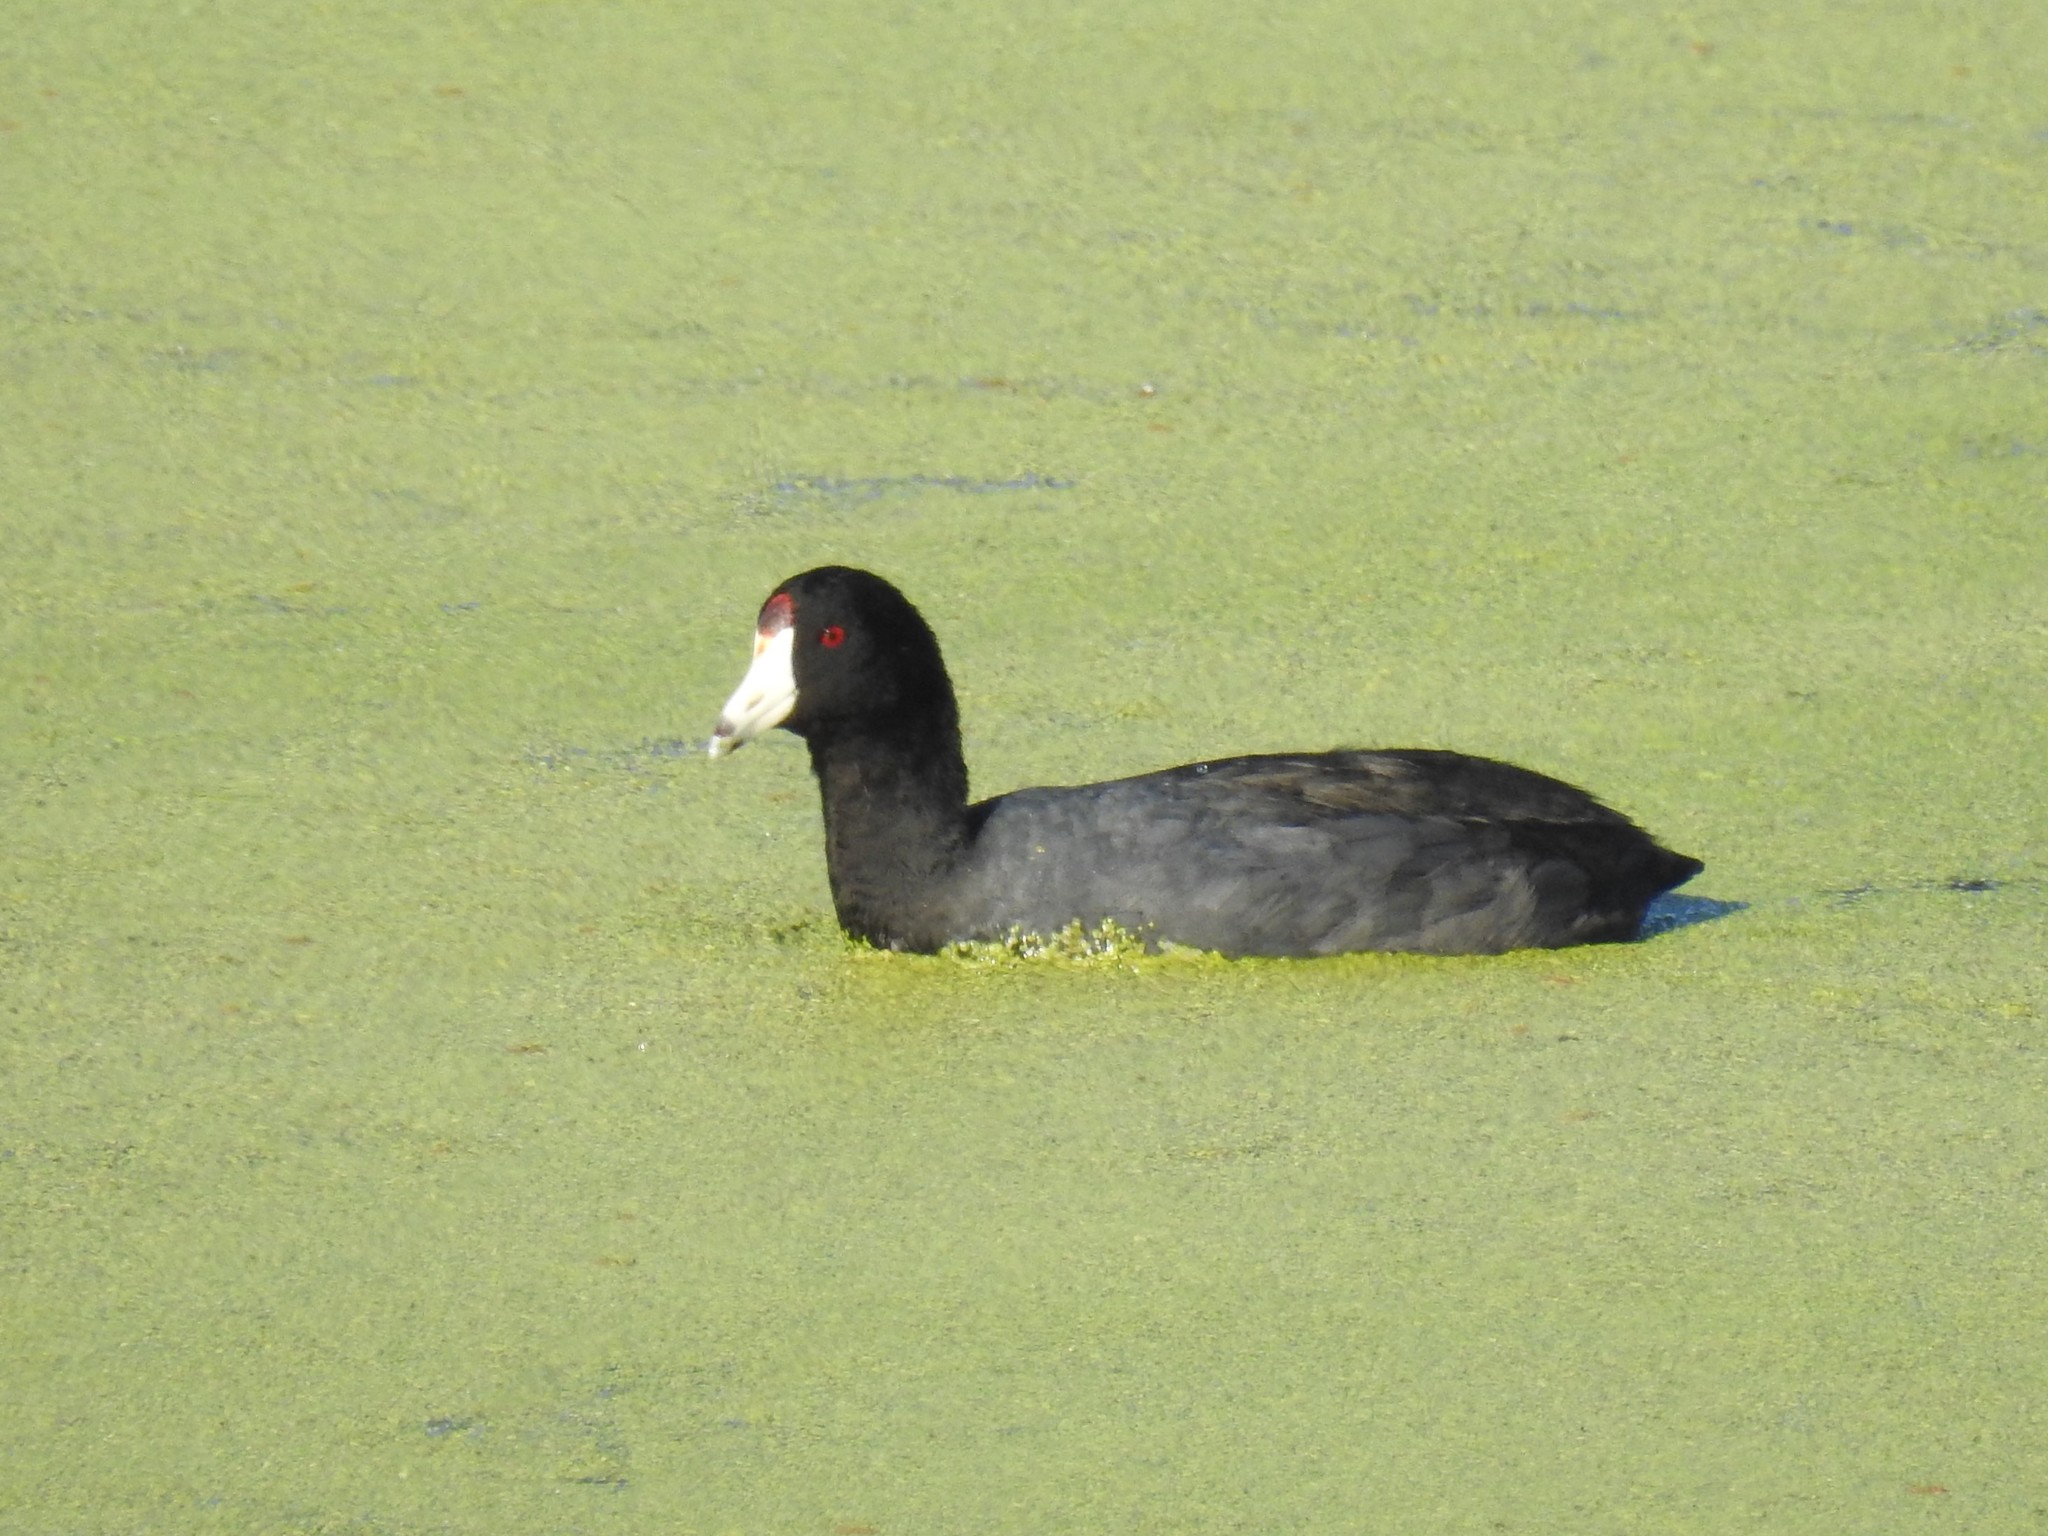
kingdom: Animalia
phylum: Chordata
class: Aves
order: Gruiformes
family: Rallidae
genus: Fulica
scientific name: Fulica americana
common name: American coot
